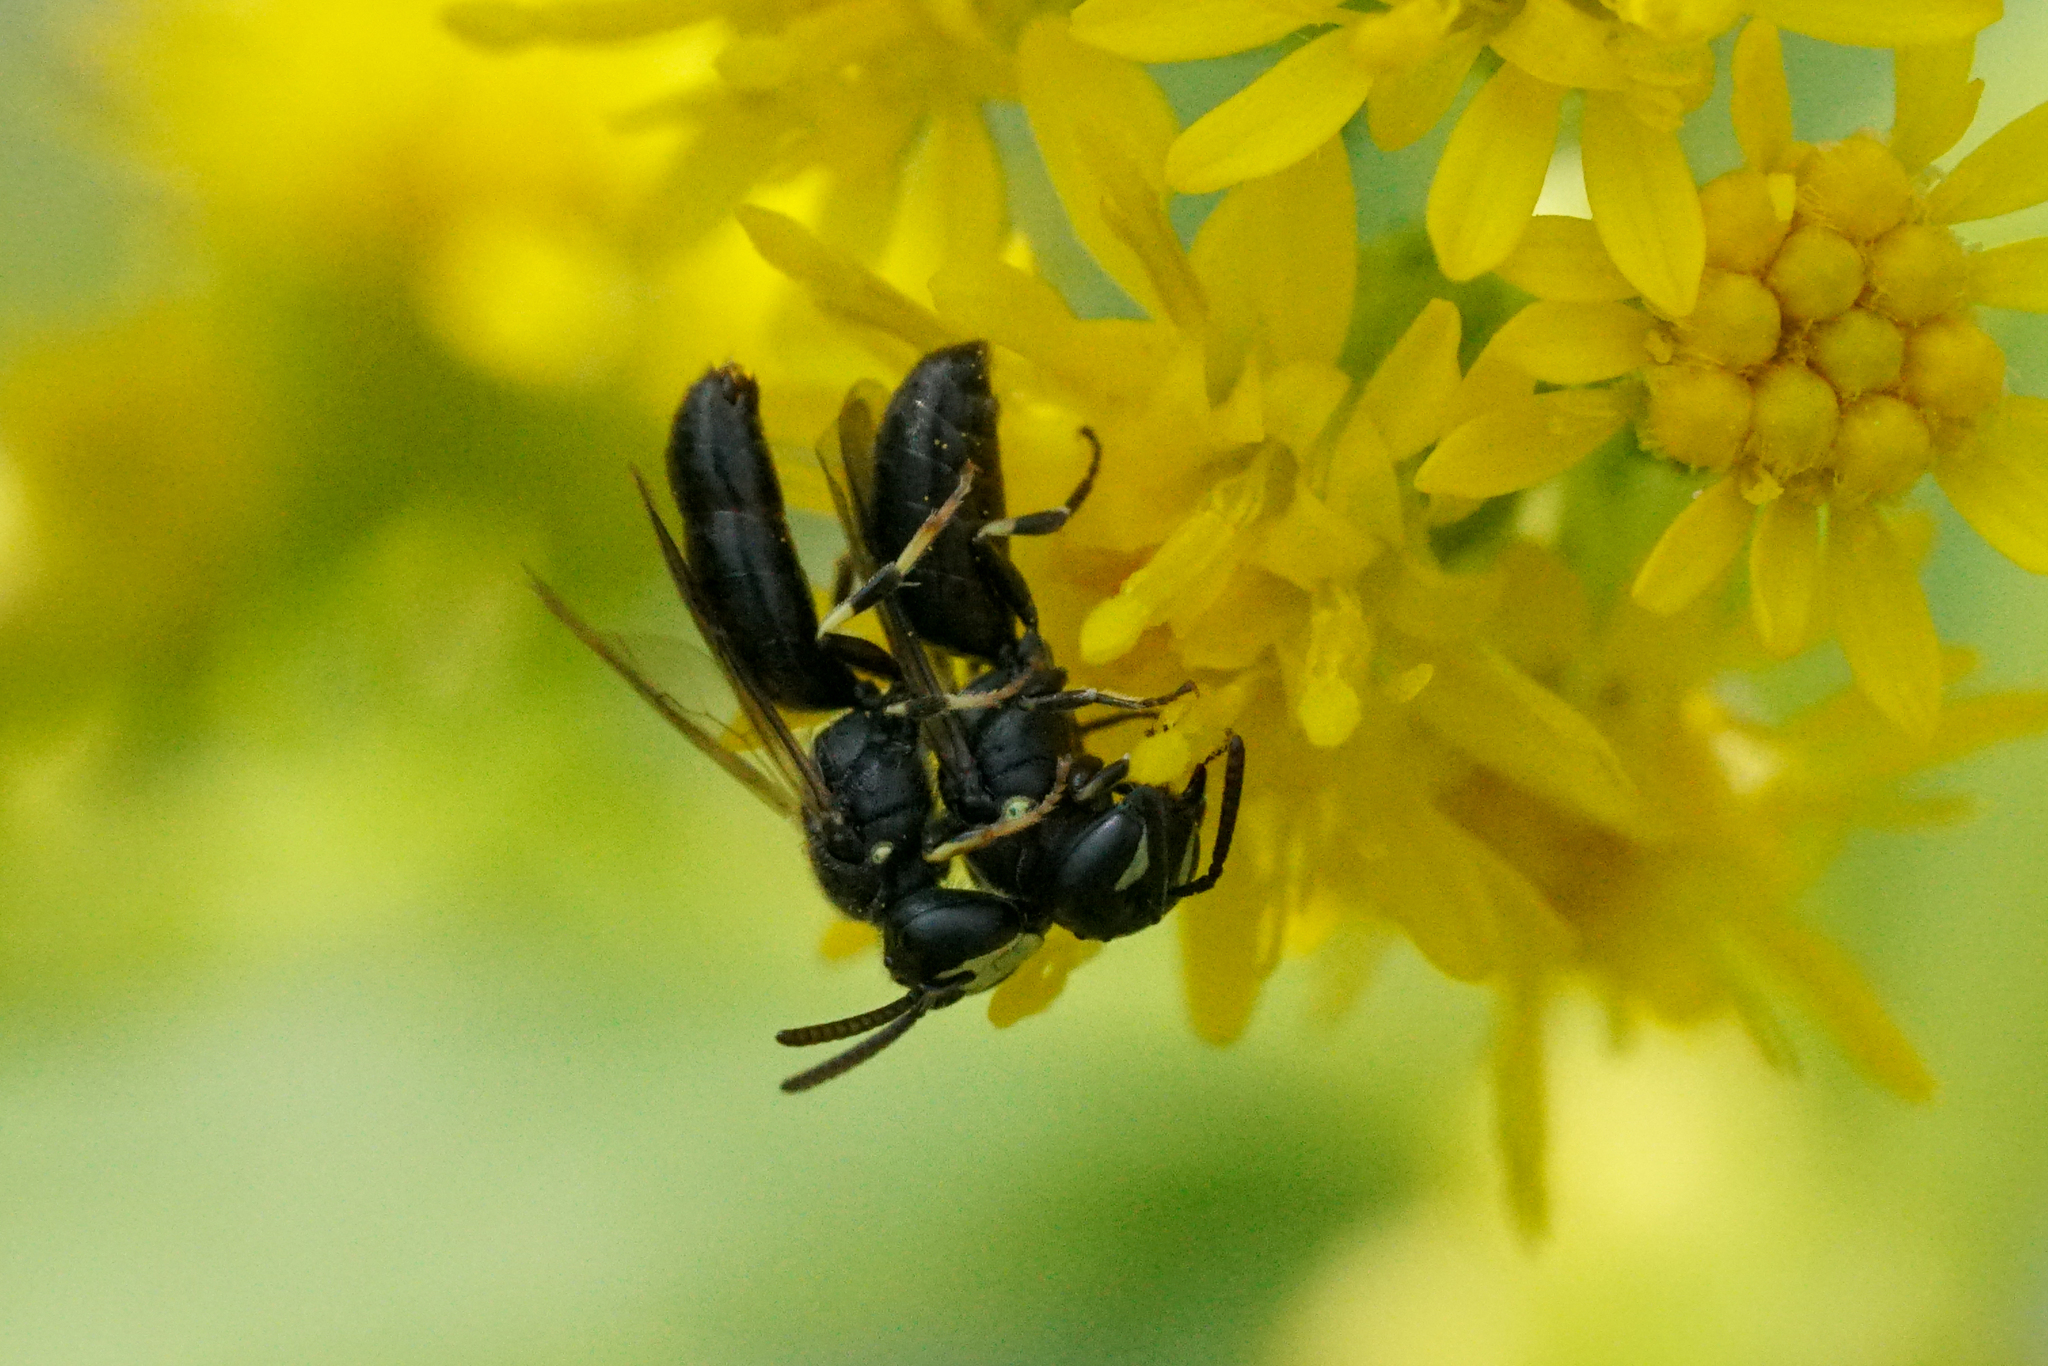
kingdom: Animalia
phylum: Arthropoda
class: Insecta
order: Hymenoptera
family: Colletidae
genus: Hylaeus
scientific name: Hylaeus mesillae
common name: Mesilla masked bee
